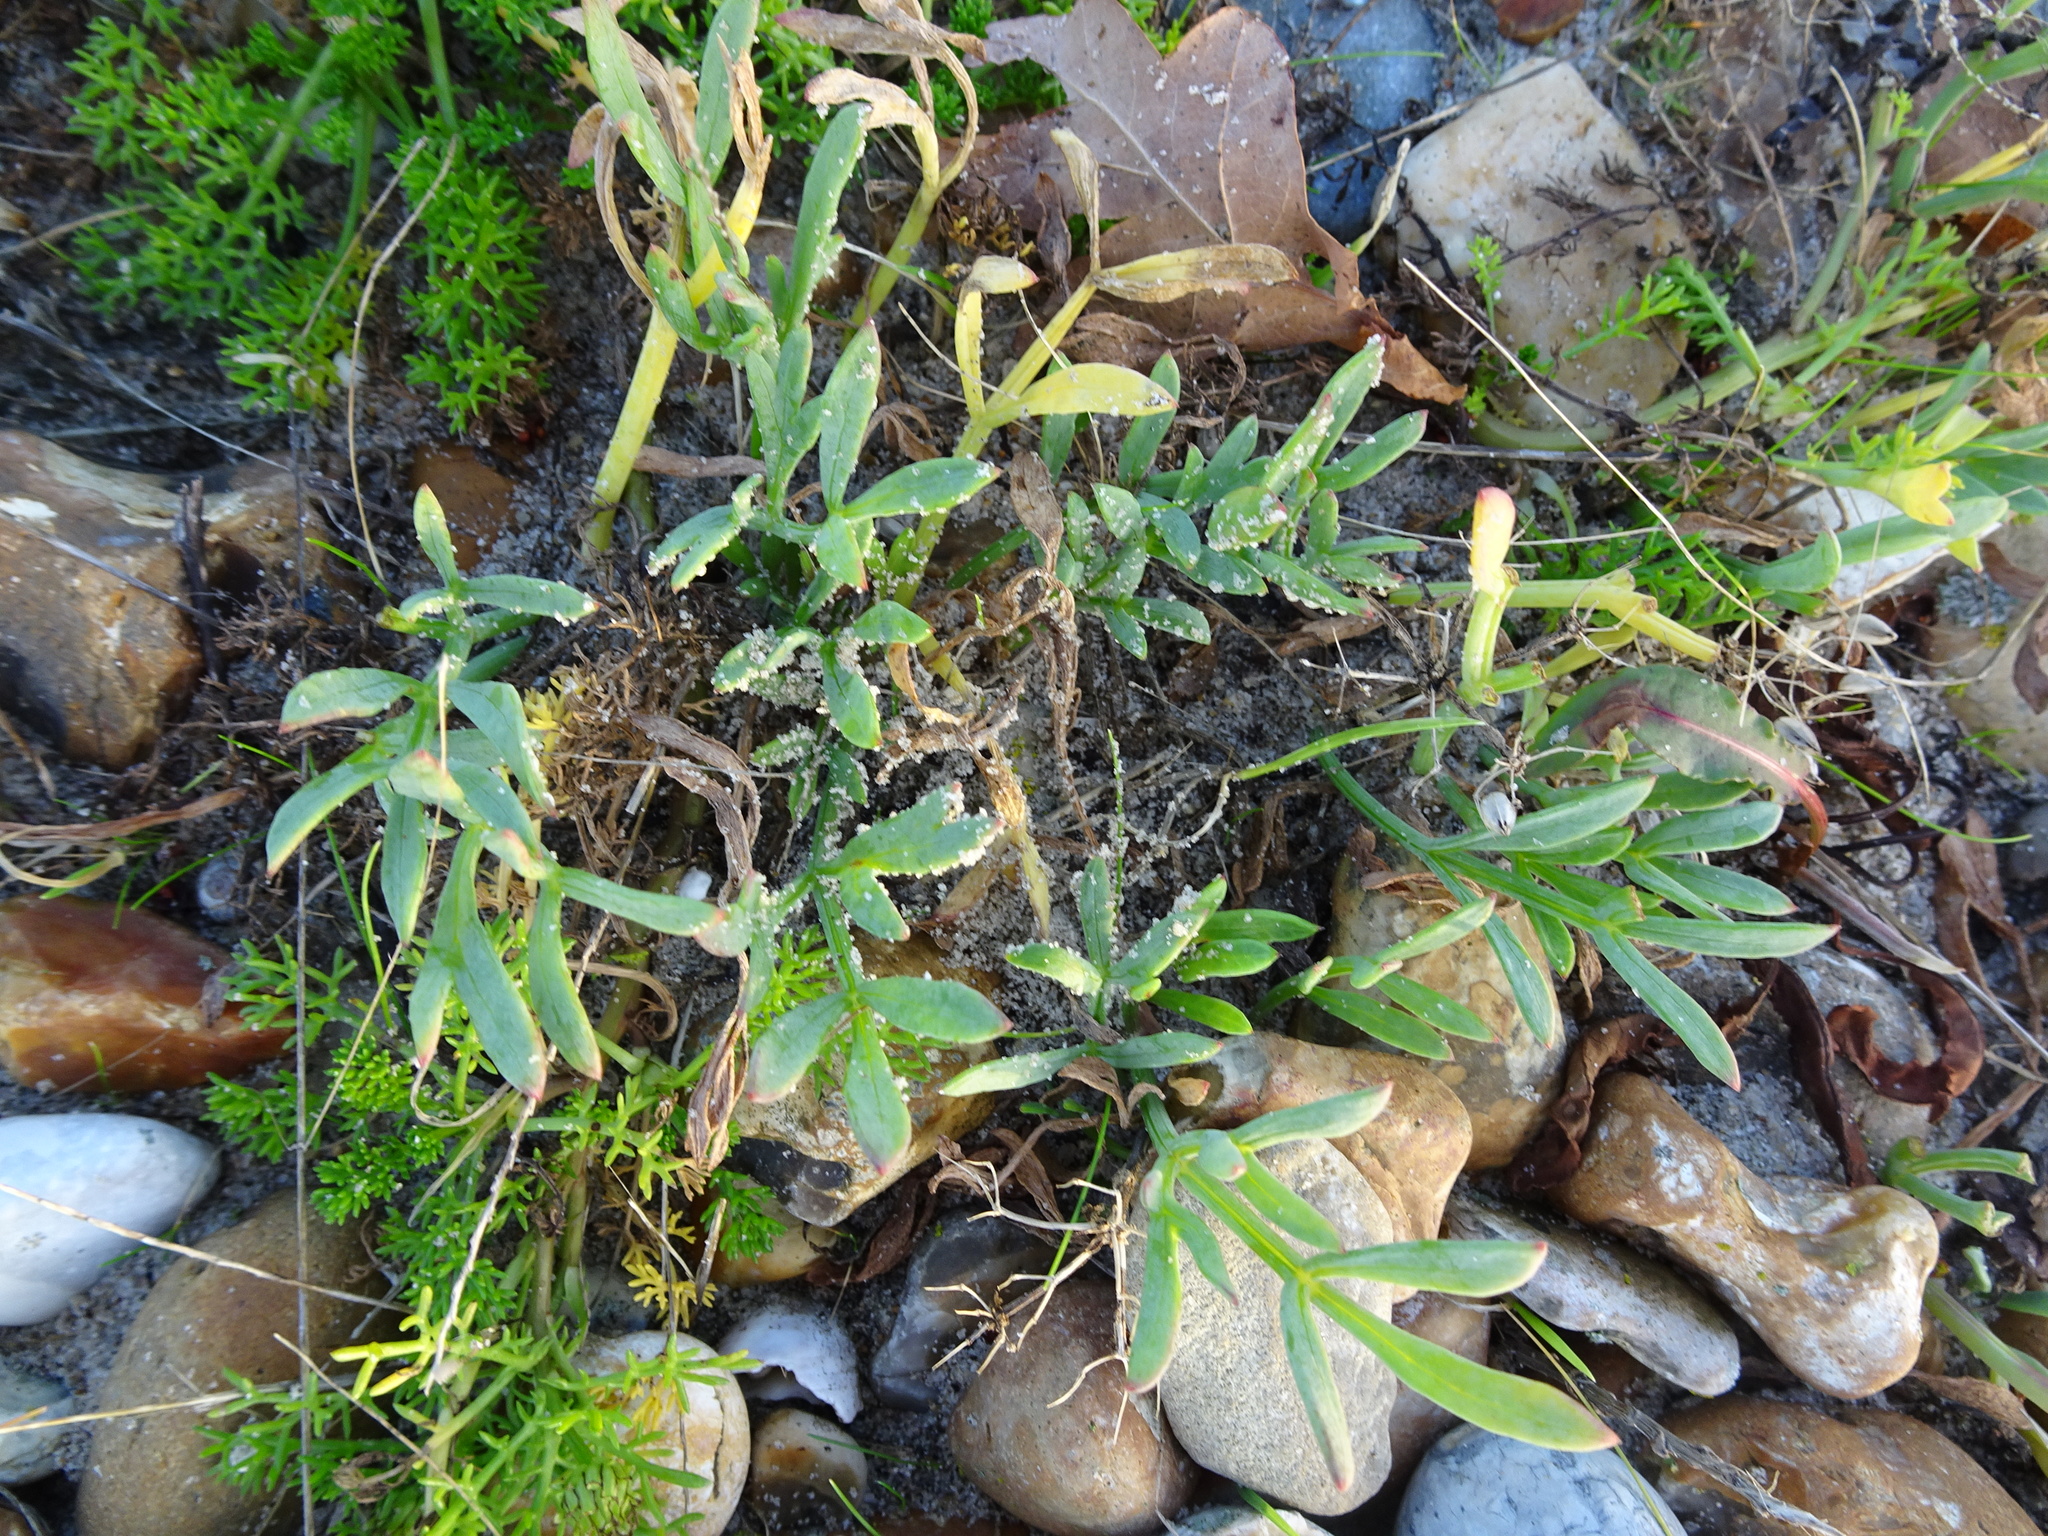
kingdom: Plantae
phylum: Tracheophyta
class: Magnoliopsida
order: Apiales
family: Apiaceae
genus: Crithmum
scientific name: Crithmum maritimum
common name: Rock samphire
